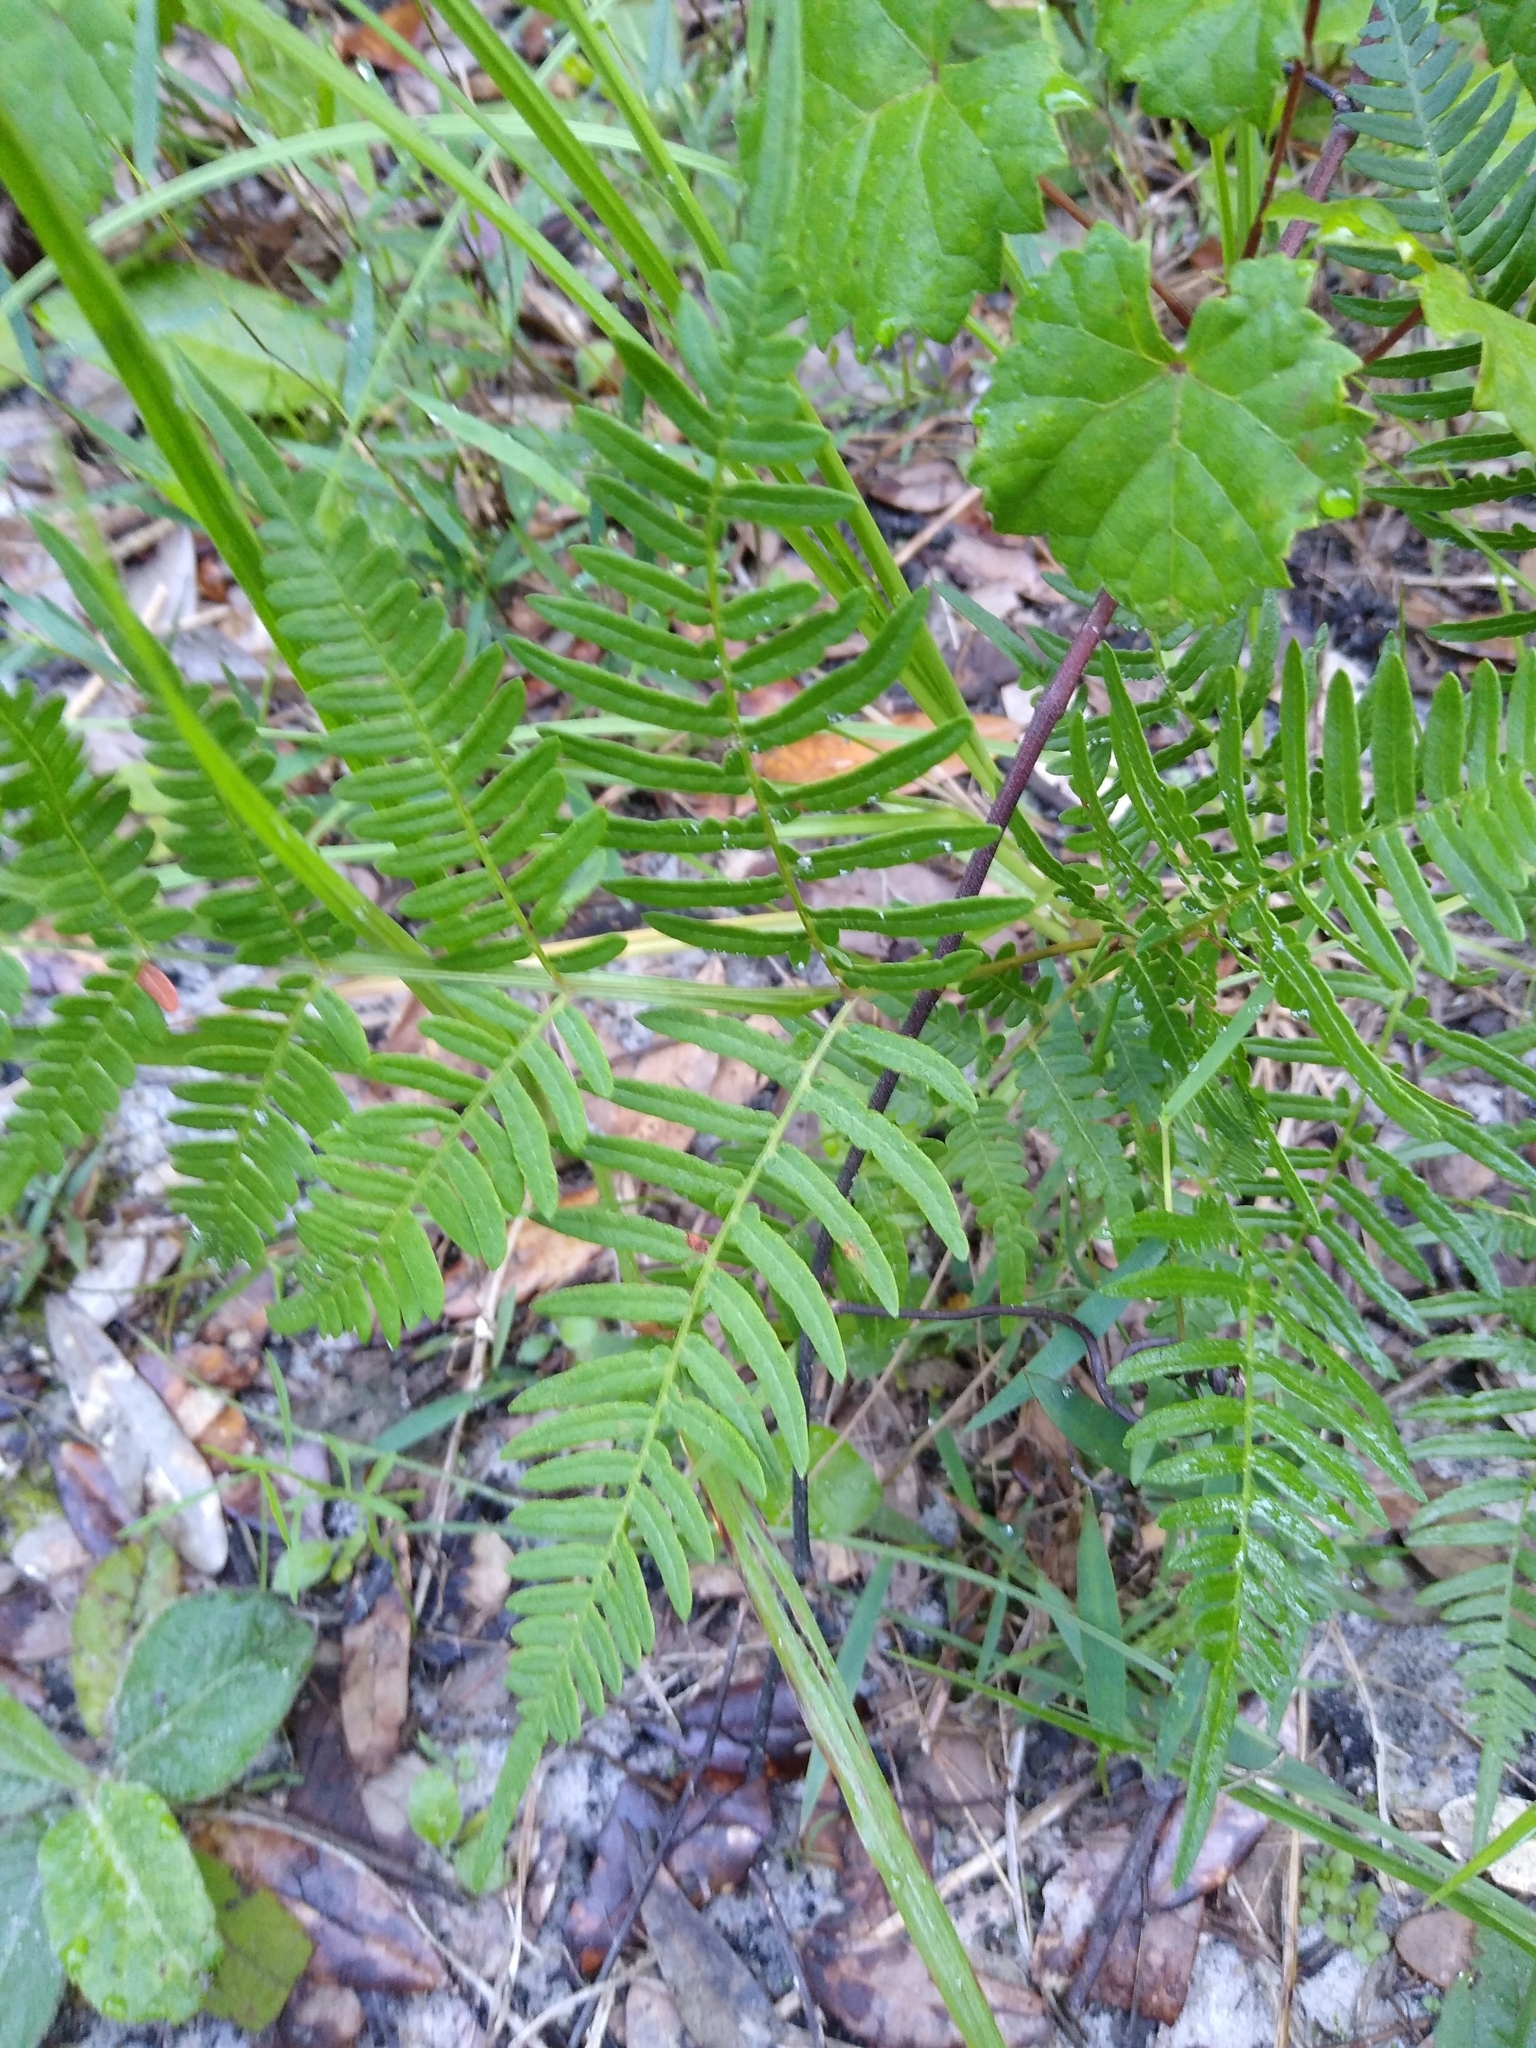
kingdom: Plantae
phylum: Tracheophyta
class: Polypodiopsida
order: Polypodiales
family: Dennstaedtiaceae
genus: Pteridium
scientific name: Pteridium
